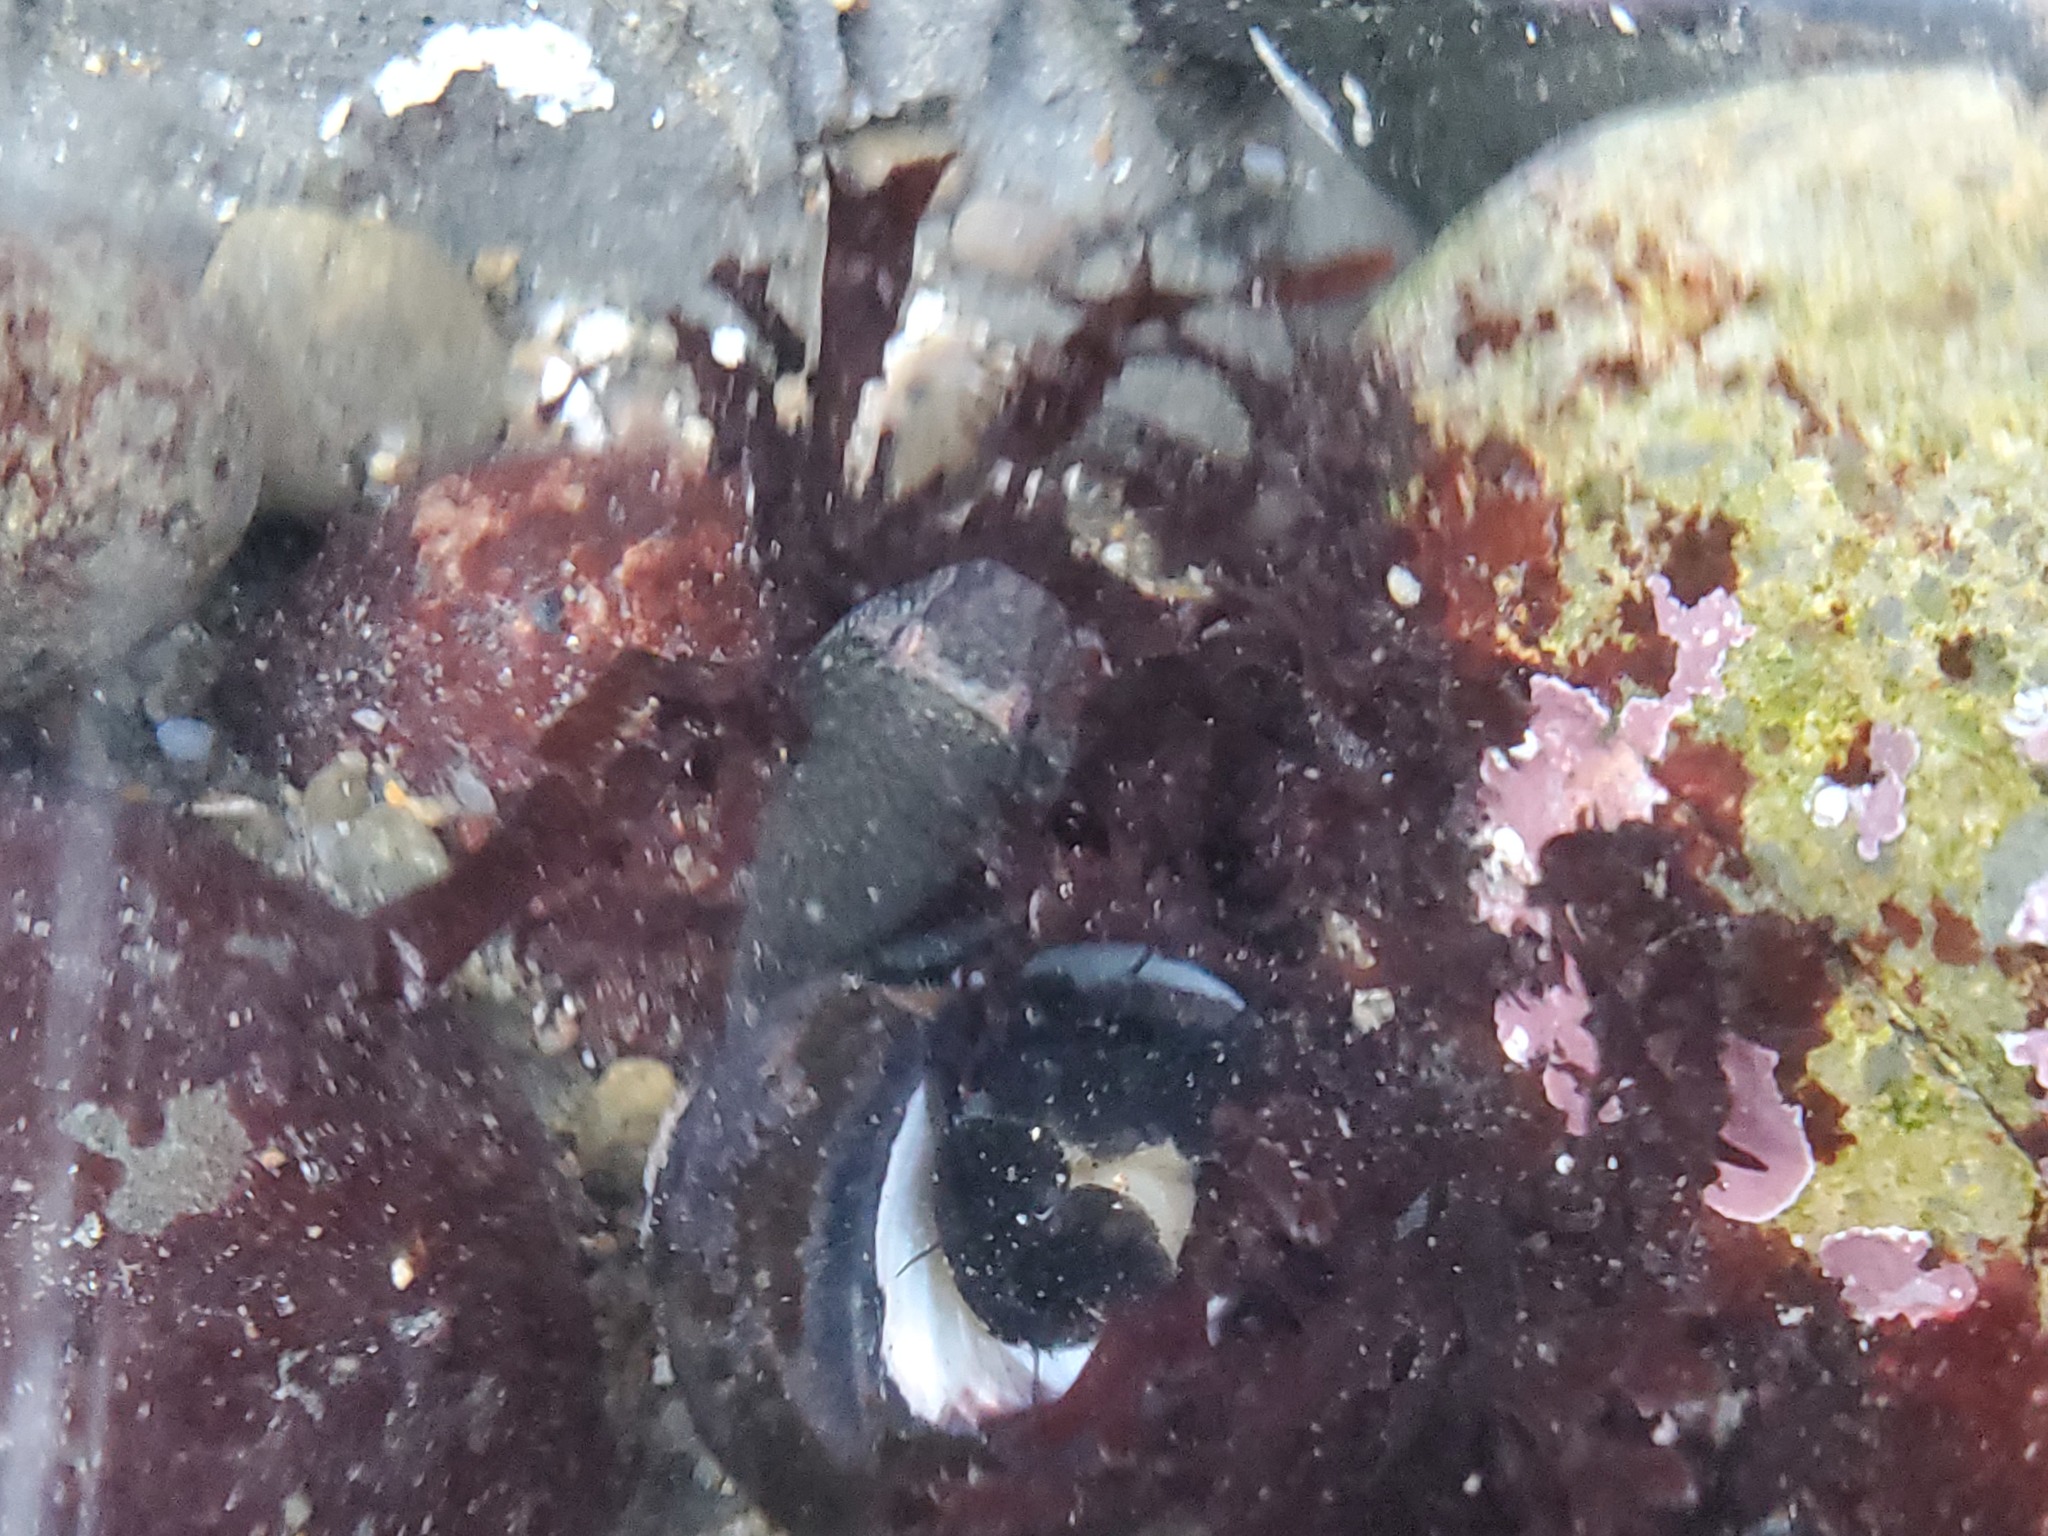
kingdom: Animalia
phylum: Chordata
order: Gobiesociformes
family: Gobiesocidae
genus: Gobiesox
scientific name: Gobiesox maeandricus
